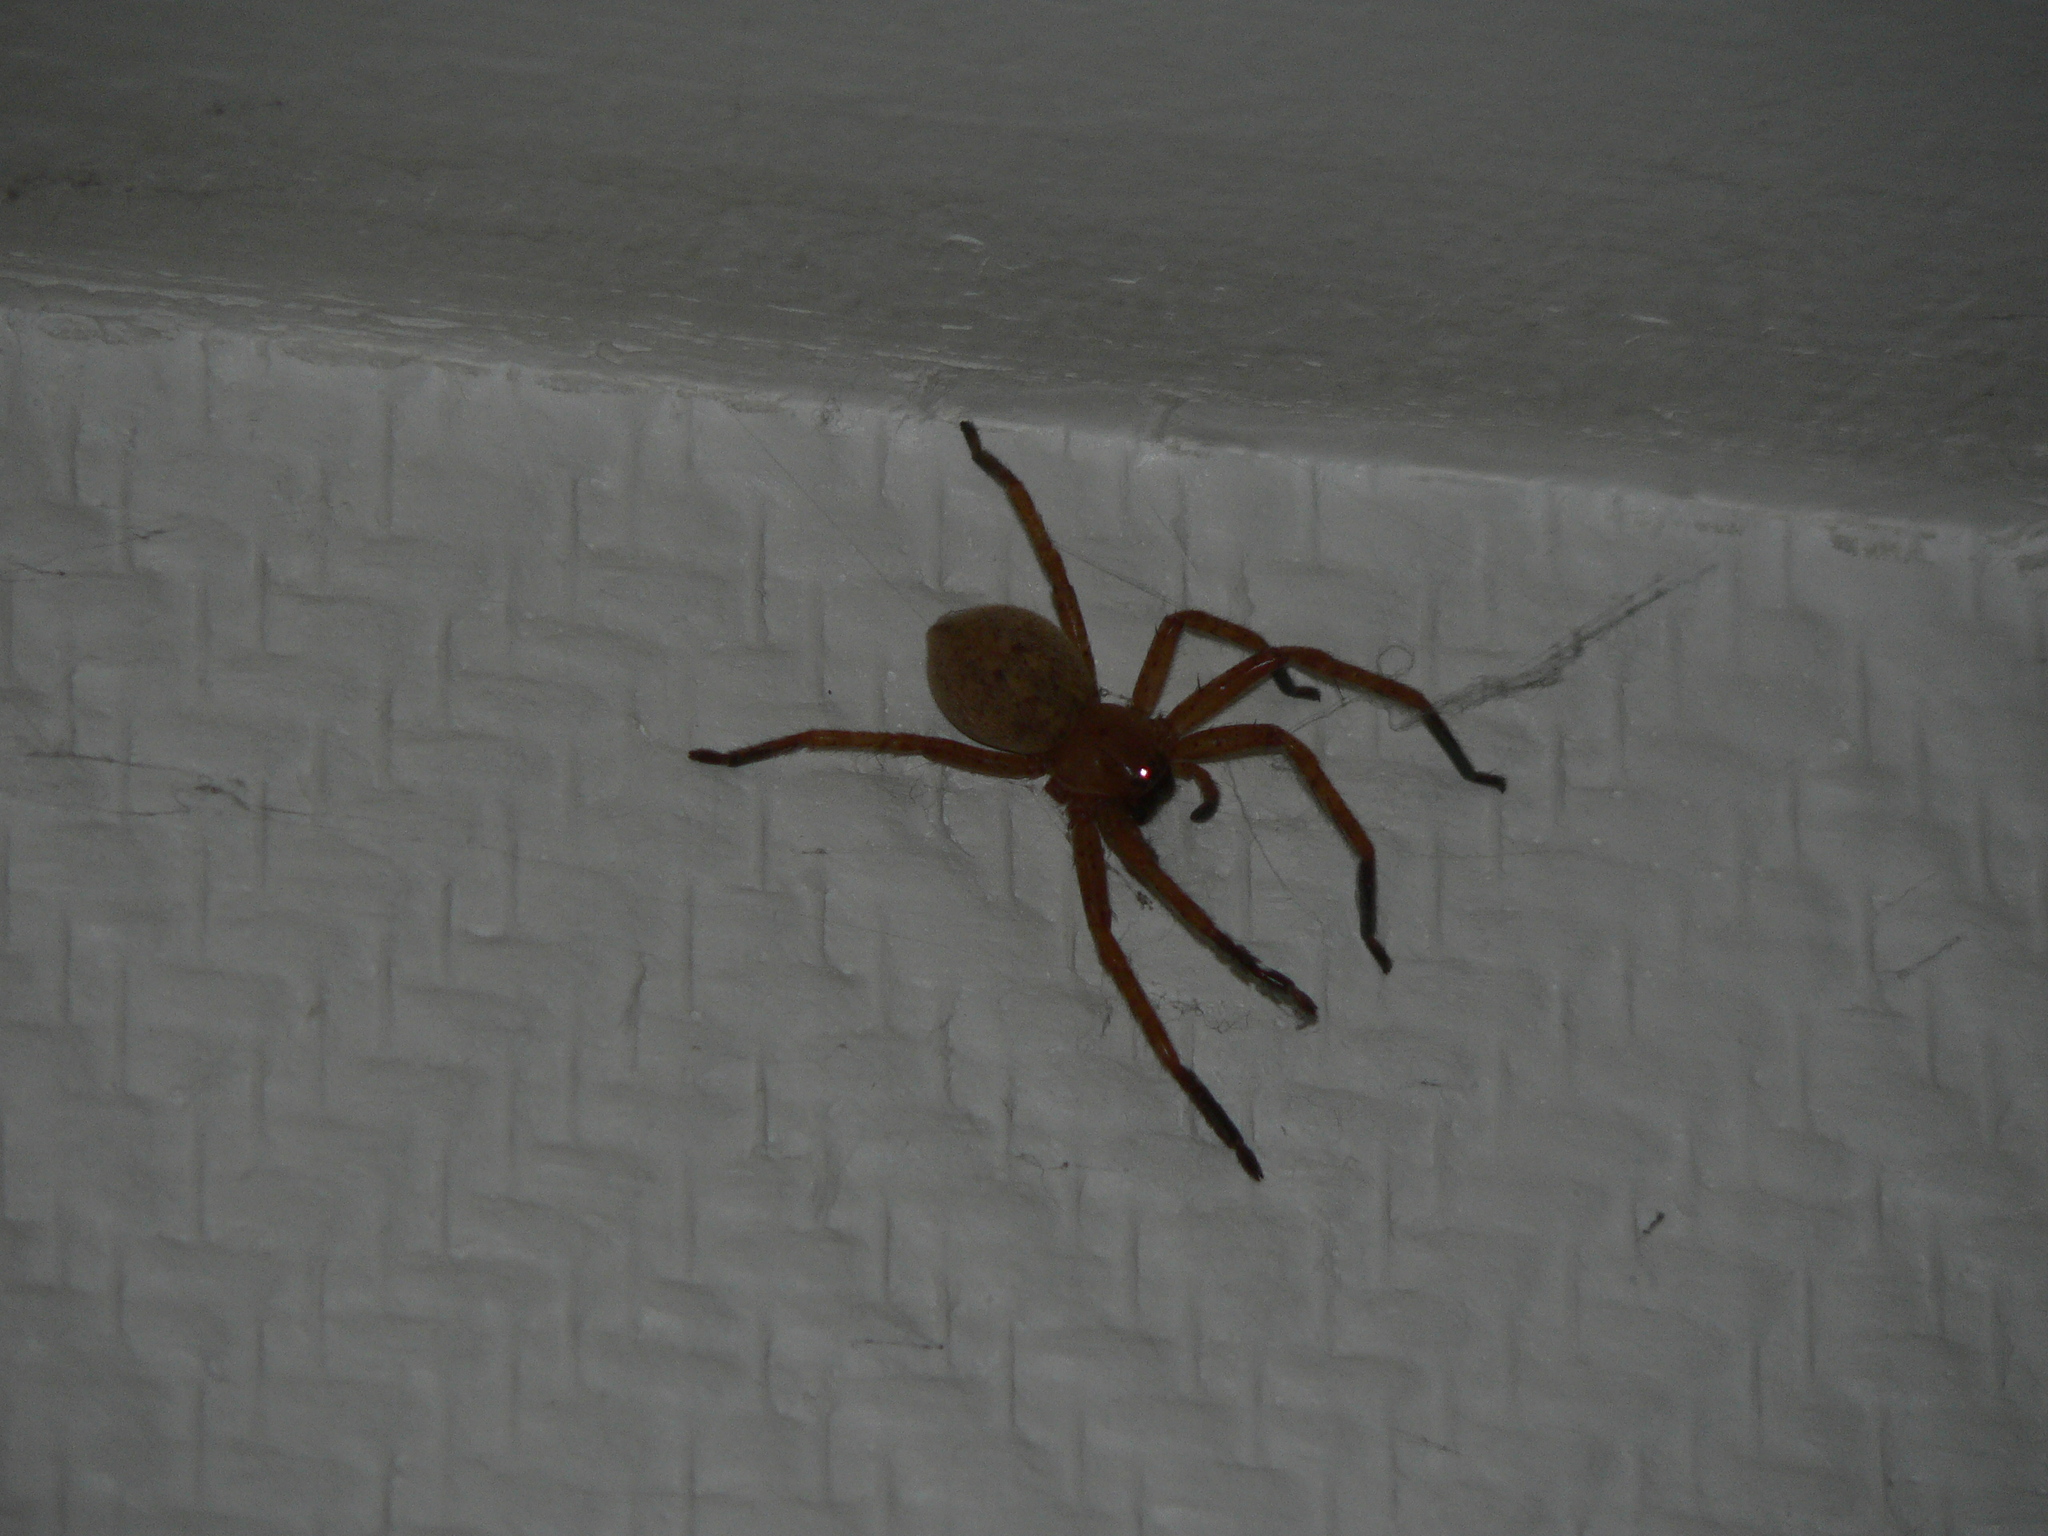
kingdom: Animalia
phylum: Arthropoda
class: Arachnida
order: Araneae
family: Sparassidae
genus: Olios
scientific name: Olios argelasius
